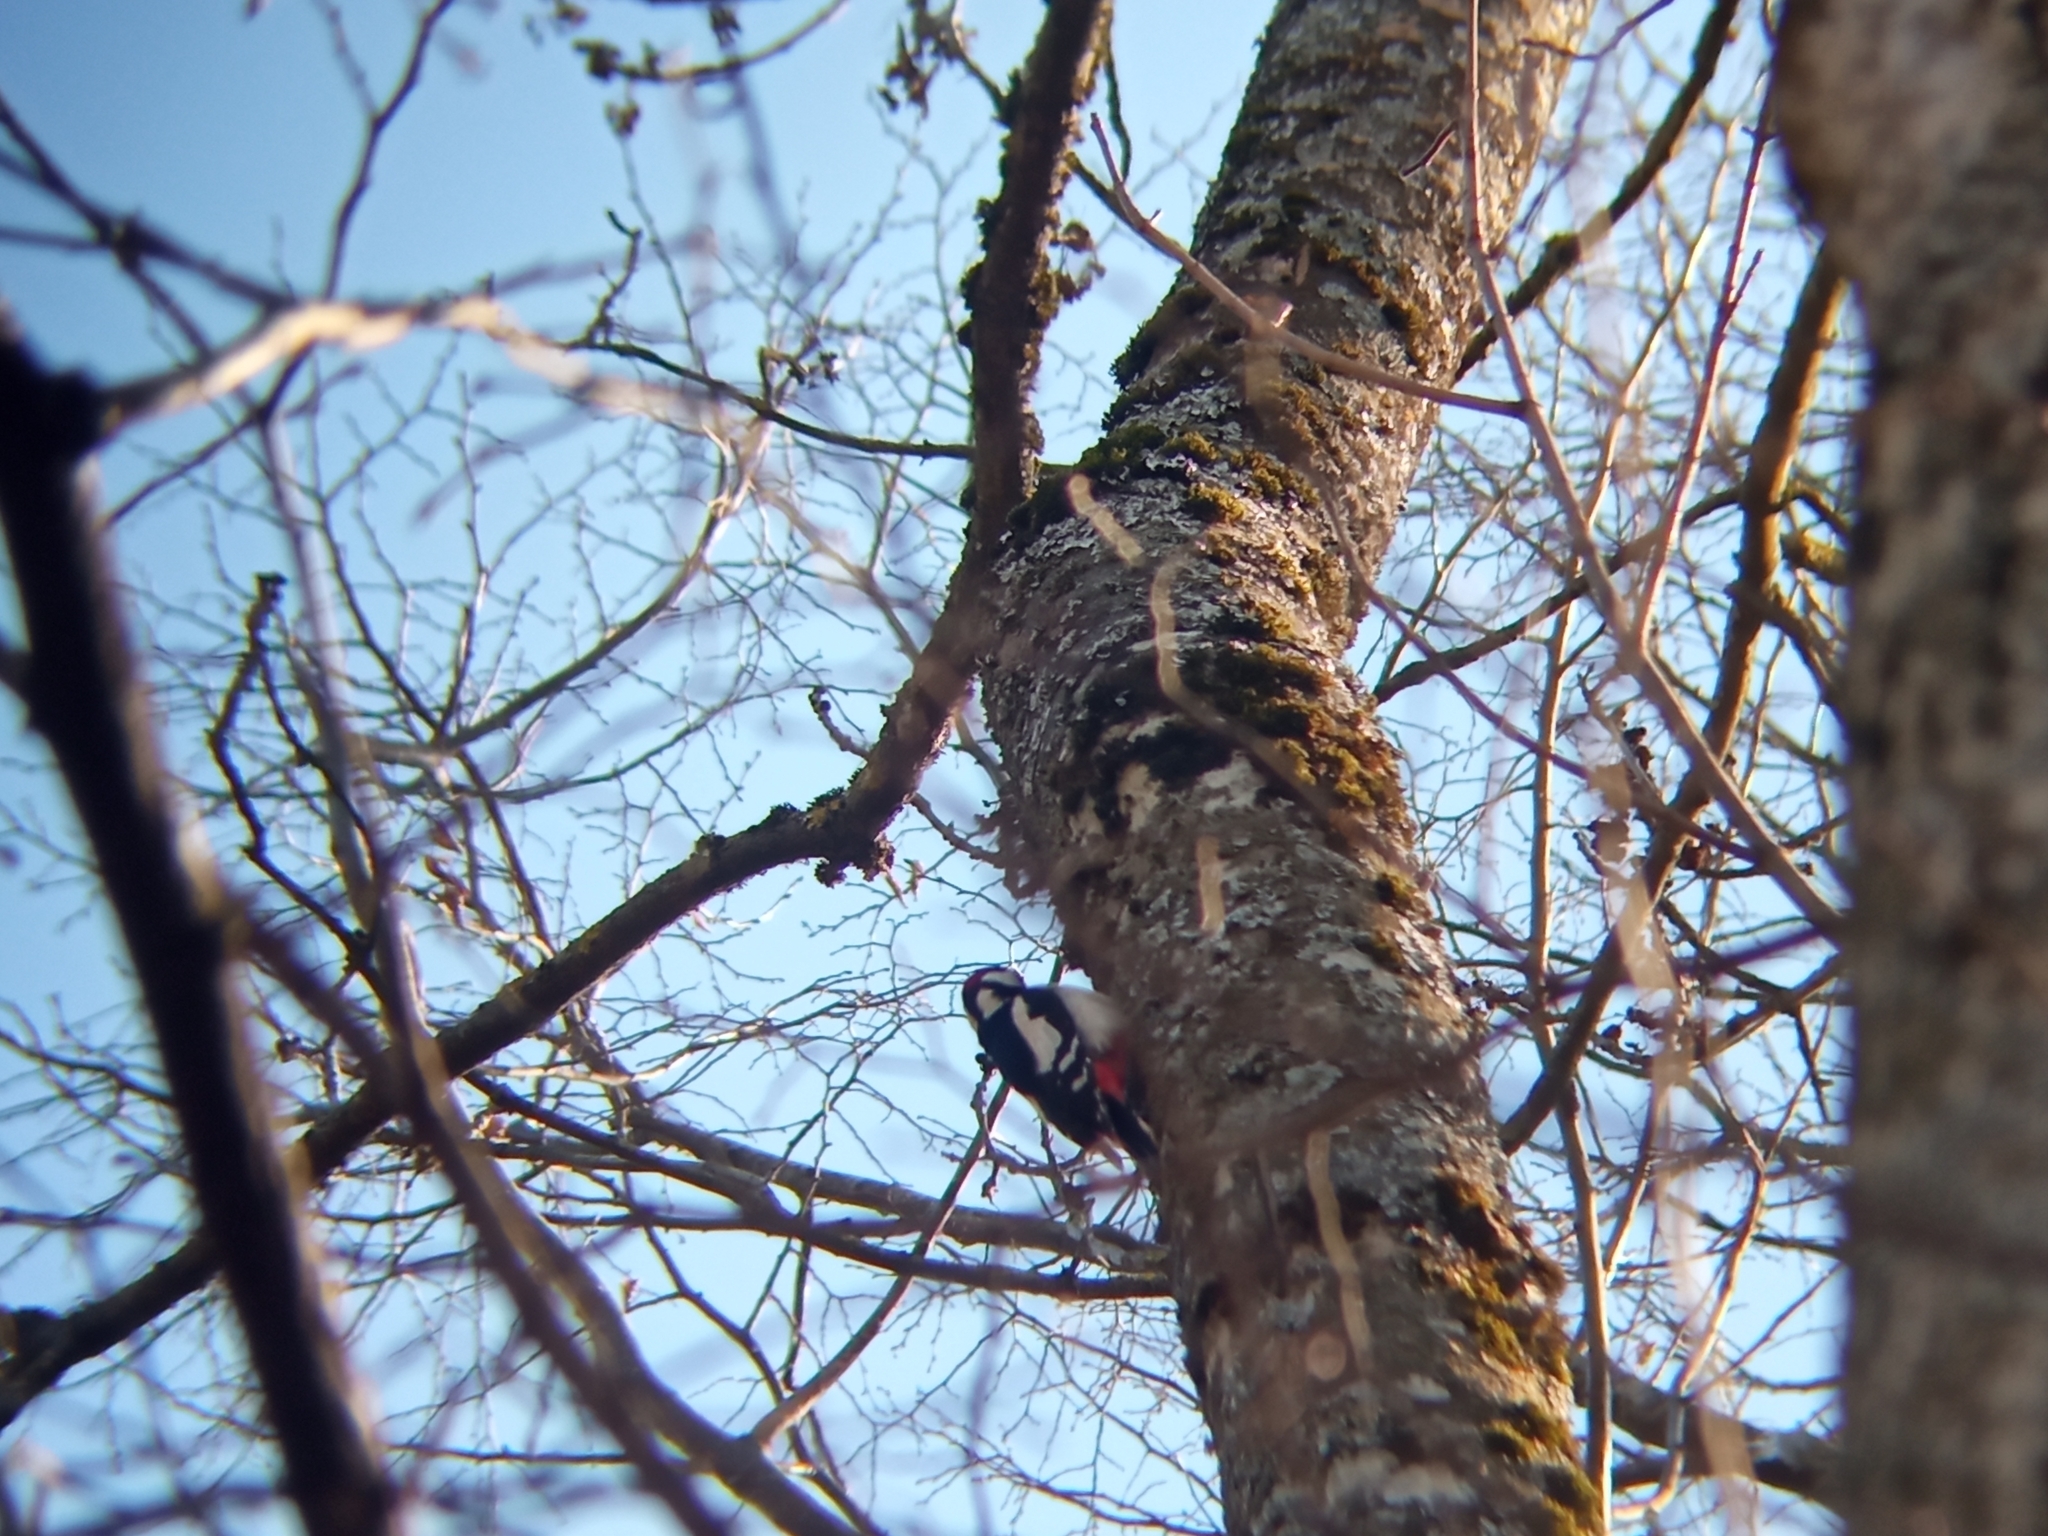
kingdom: Animalia
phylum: Chordata
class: Aves
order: Piciformes
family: Picidae
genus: Dendrocopos
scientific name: Dendrocopos major
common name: Great spotted woodpecker
